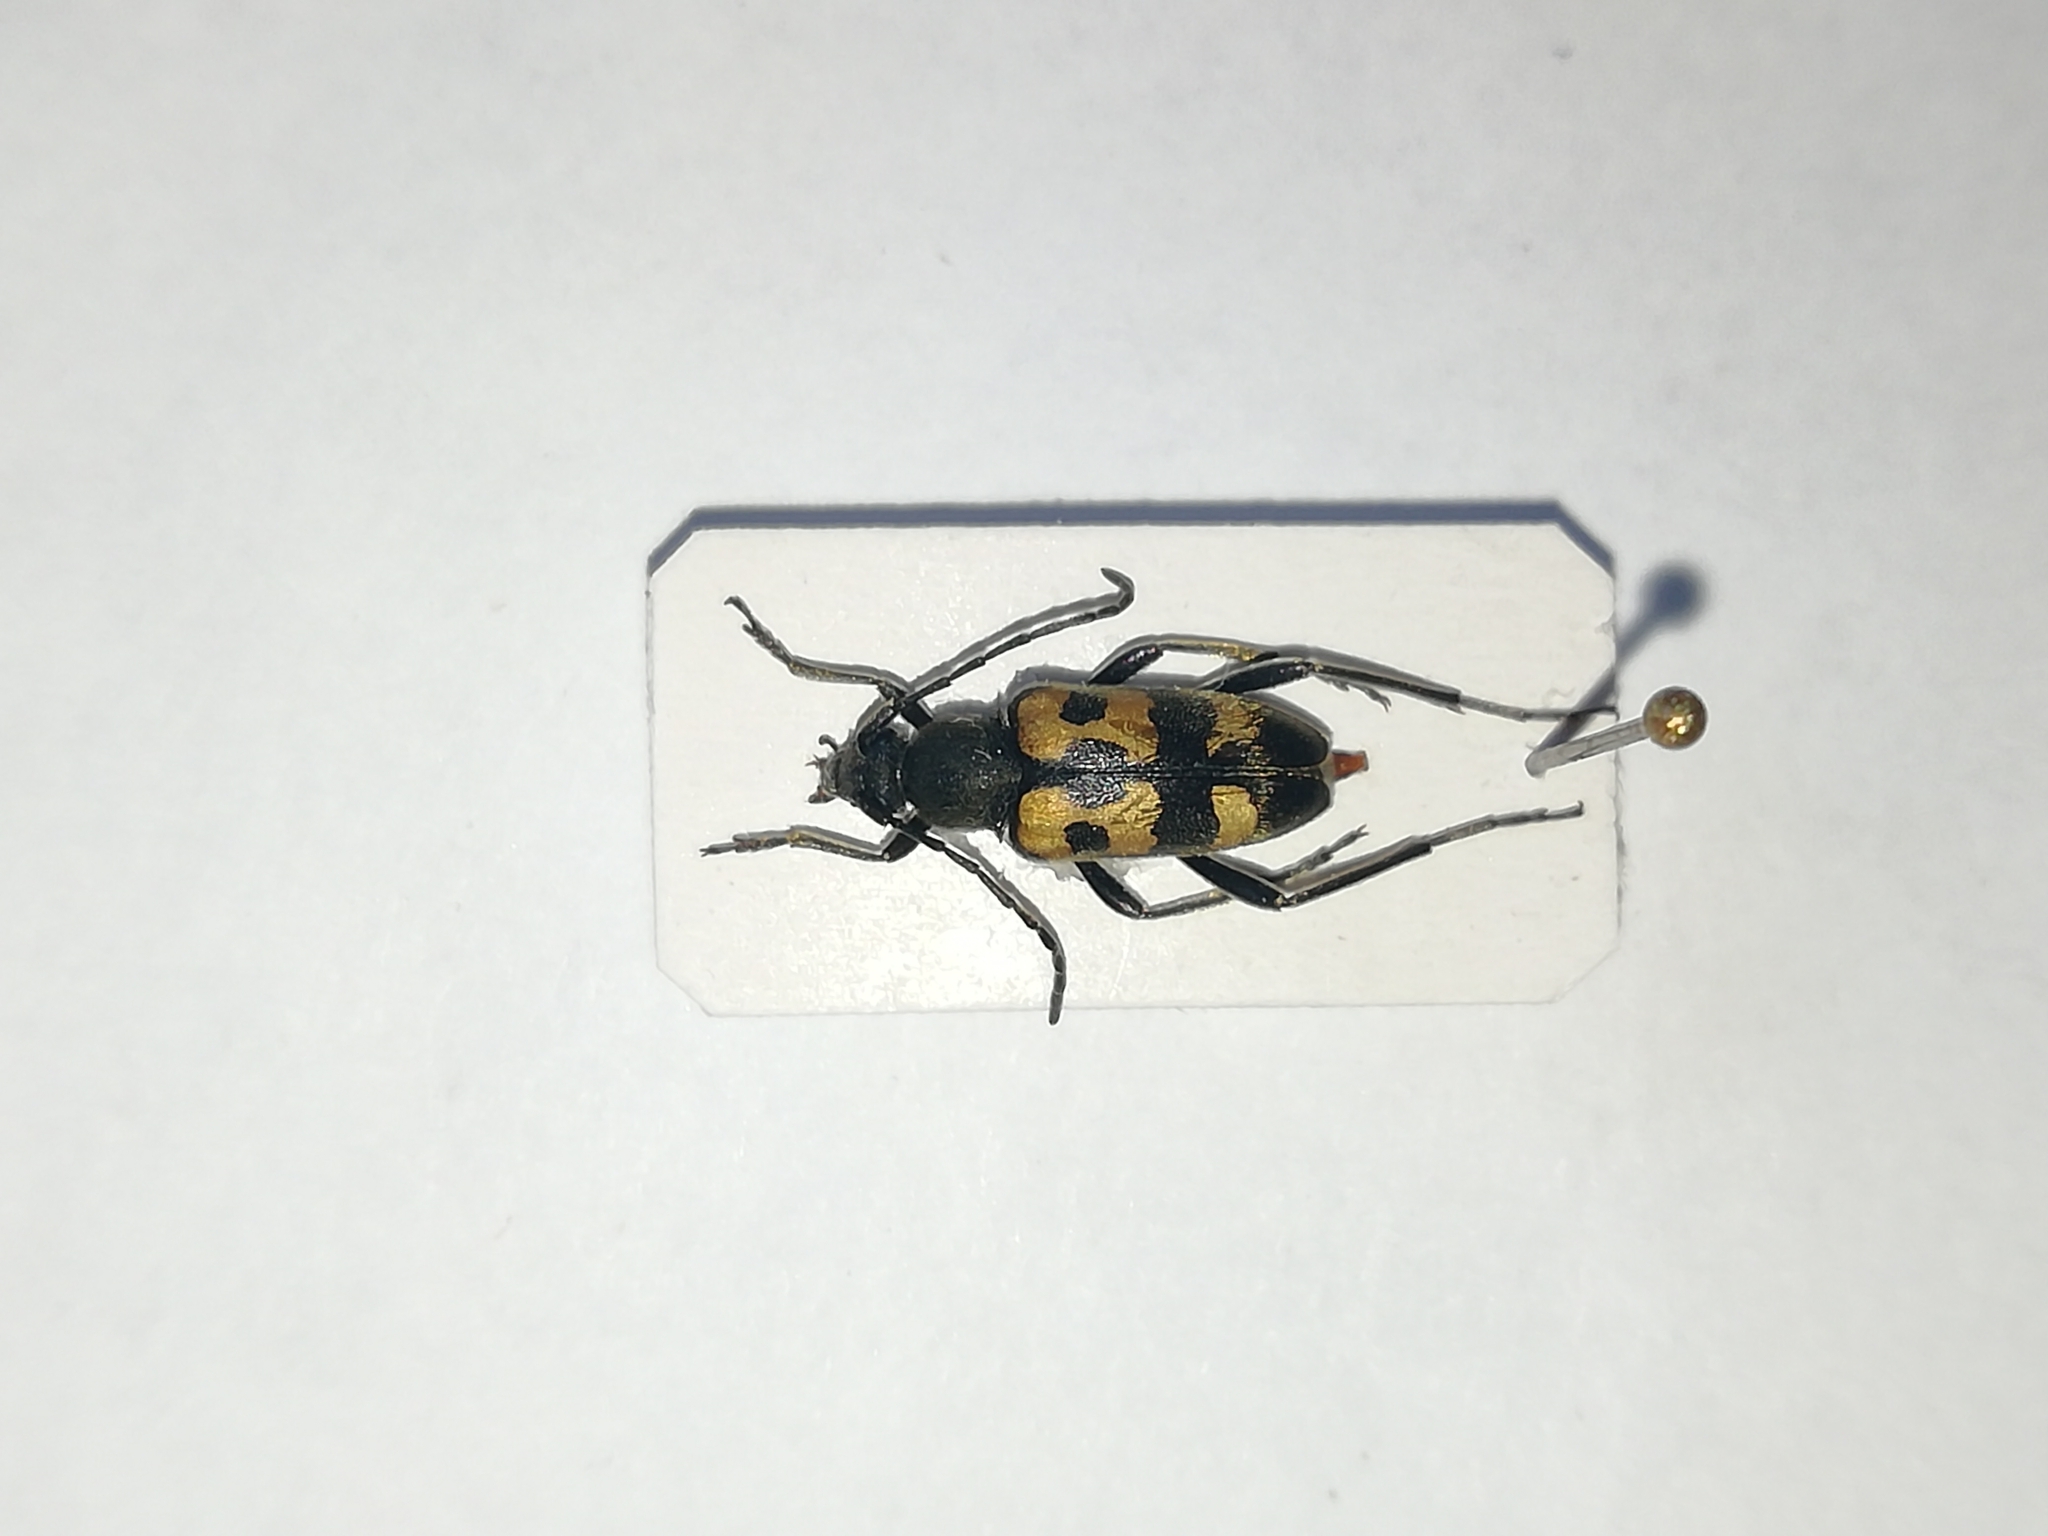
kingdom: Animalia
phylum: Arthropoda
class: Insecta
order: Coleoptera
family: Cerambycidae
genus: Pachytodes
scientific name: Pachytodes
